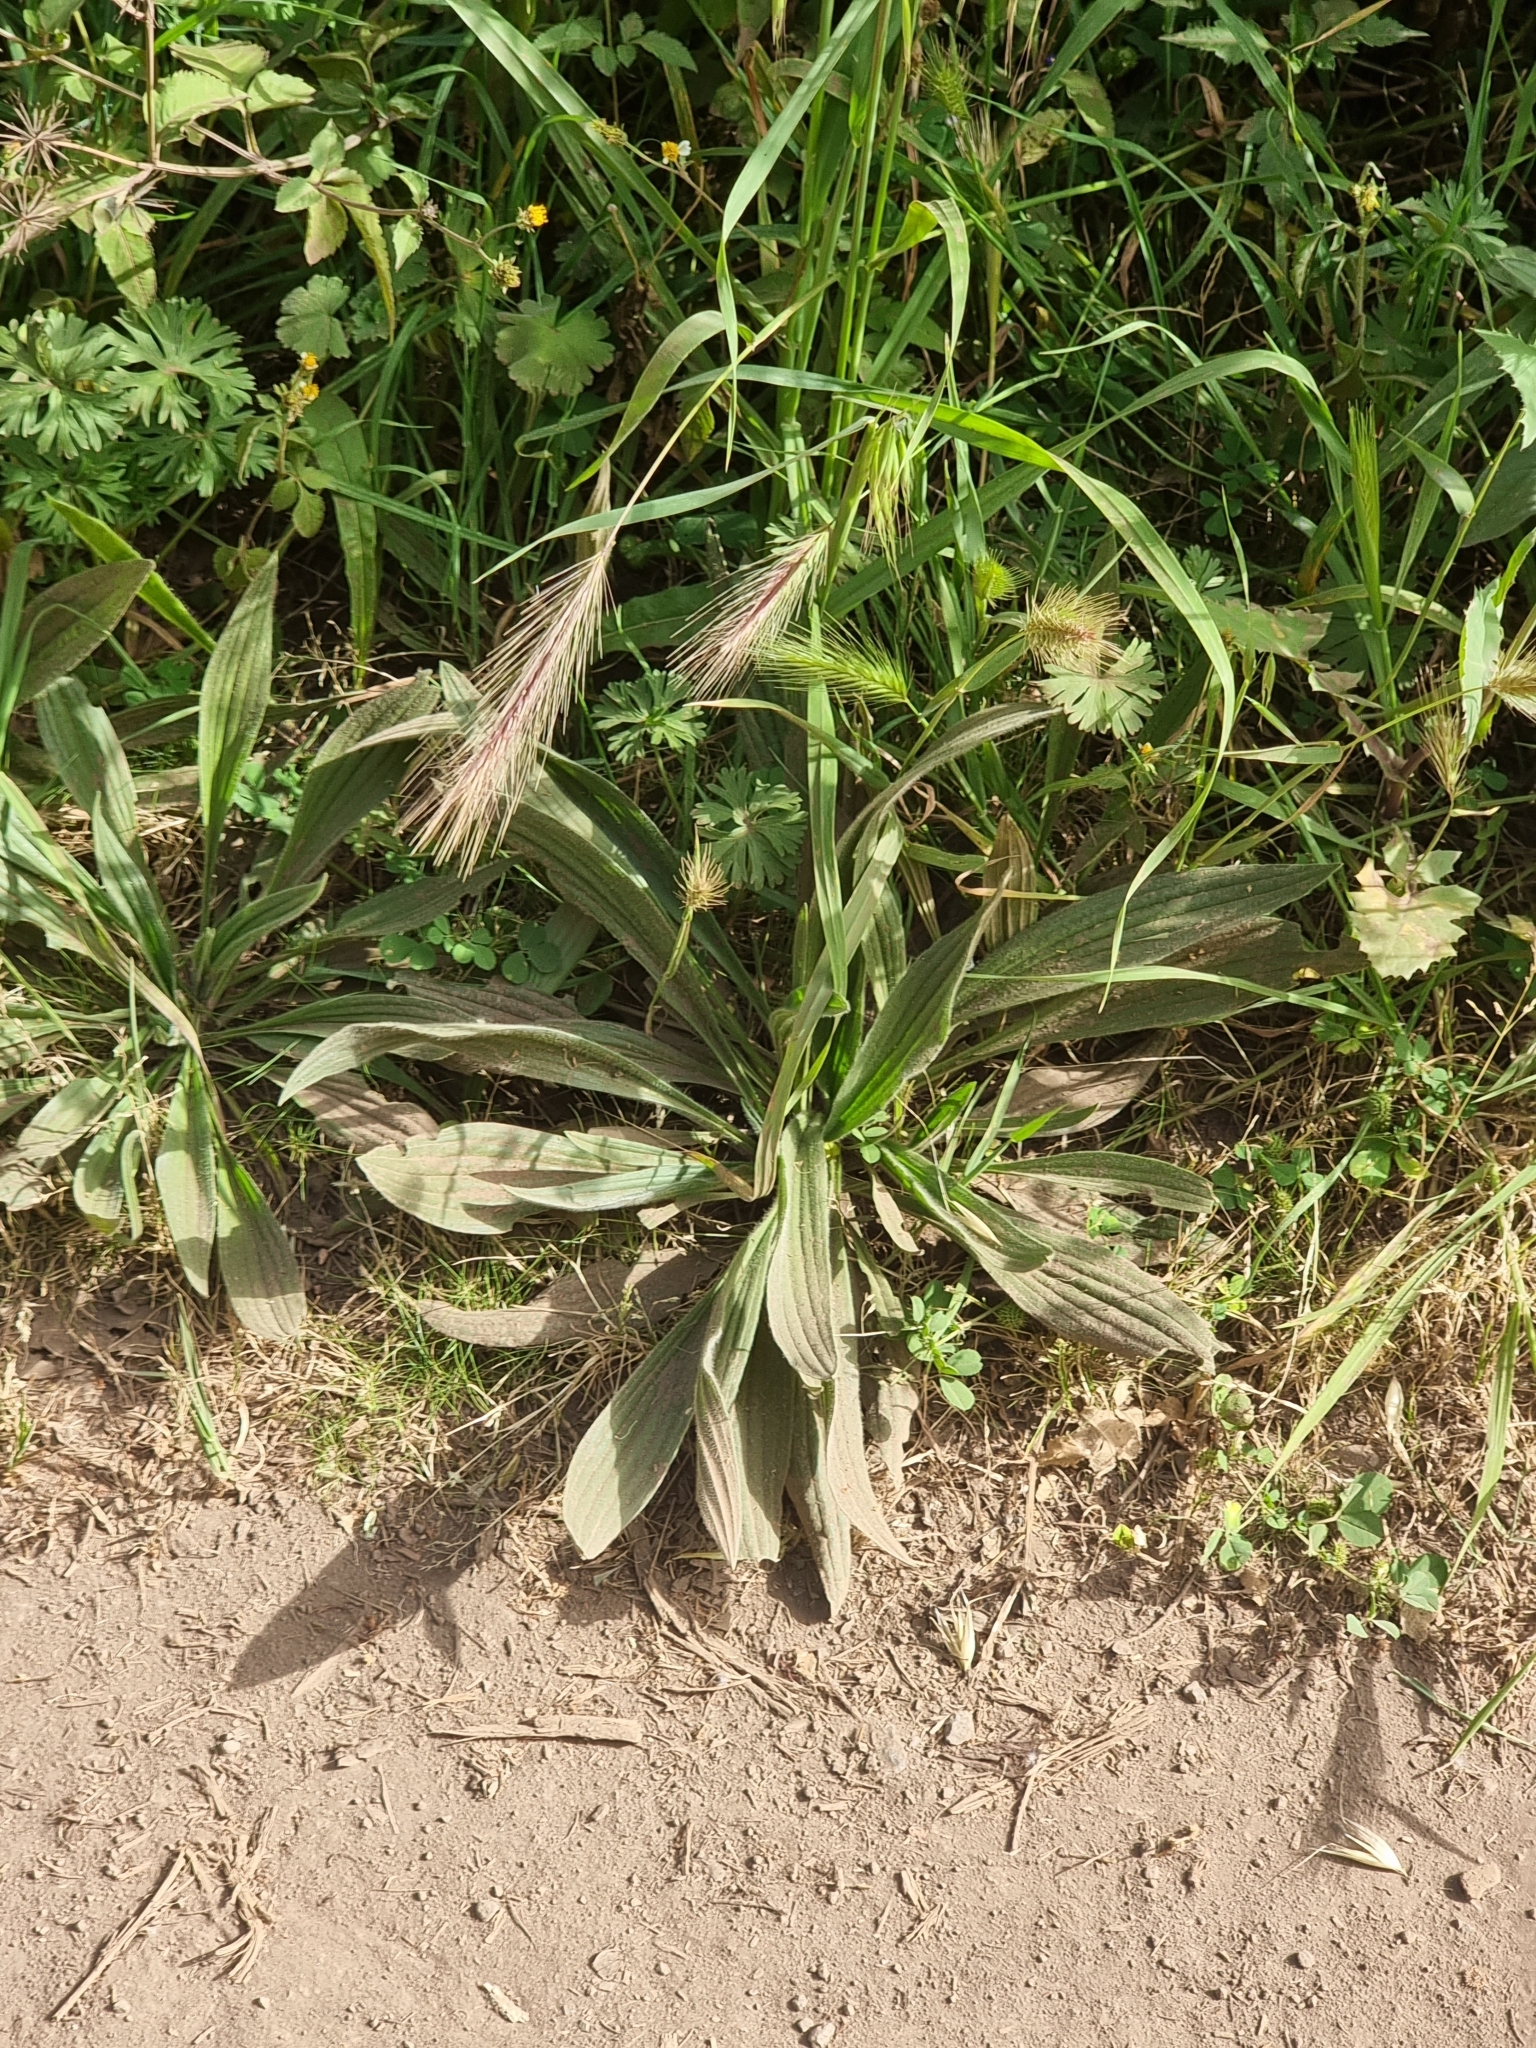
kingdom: Plantae
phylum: Tracheophyta
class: Magnoliopsida
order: Lamiales
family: Plantaginaceae
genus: Plantago
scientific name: Plantago lanceolata
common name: Ribwort plantain
